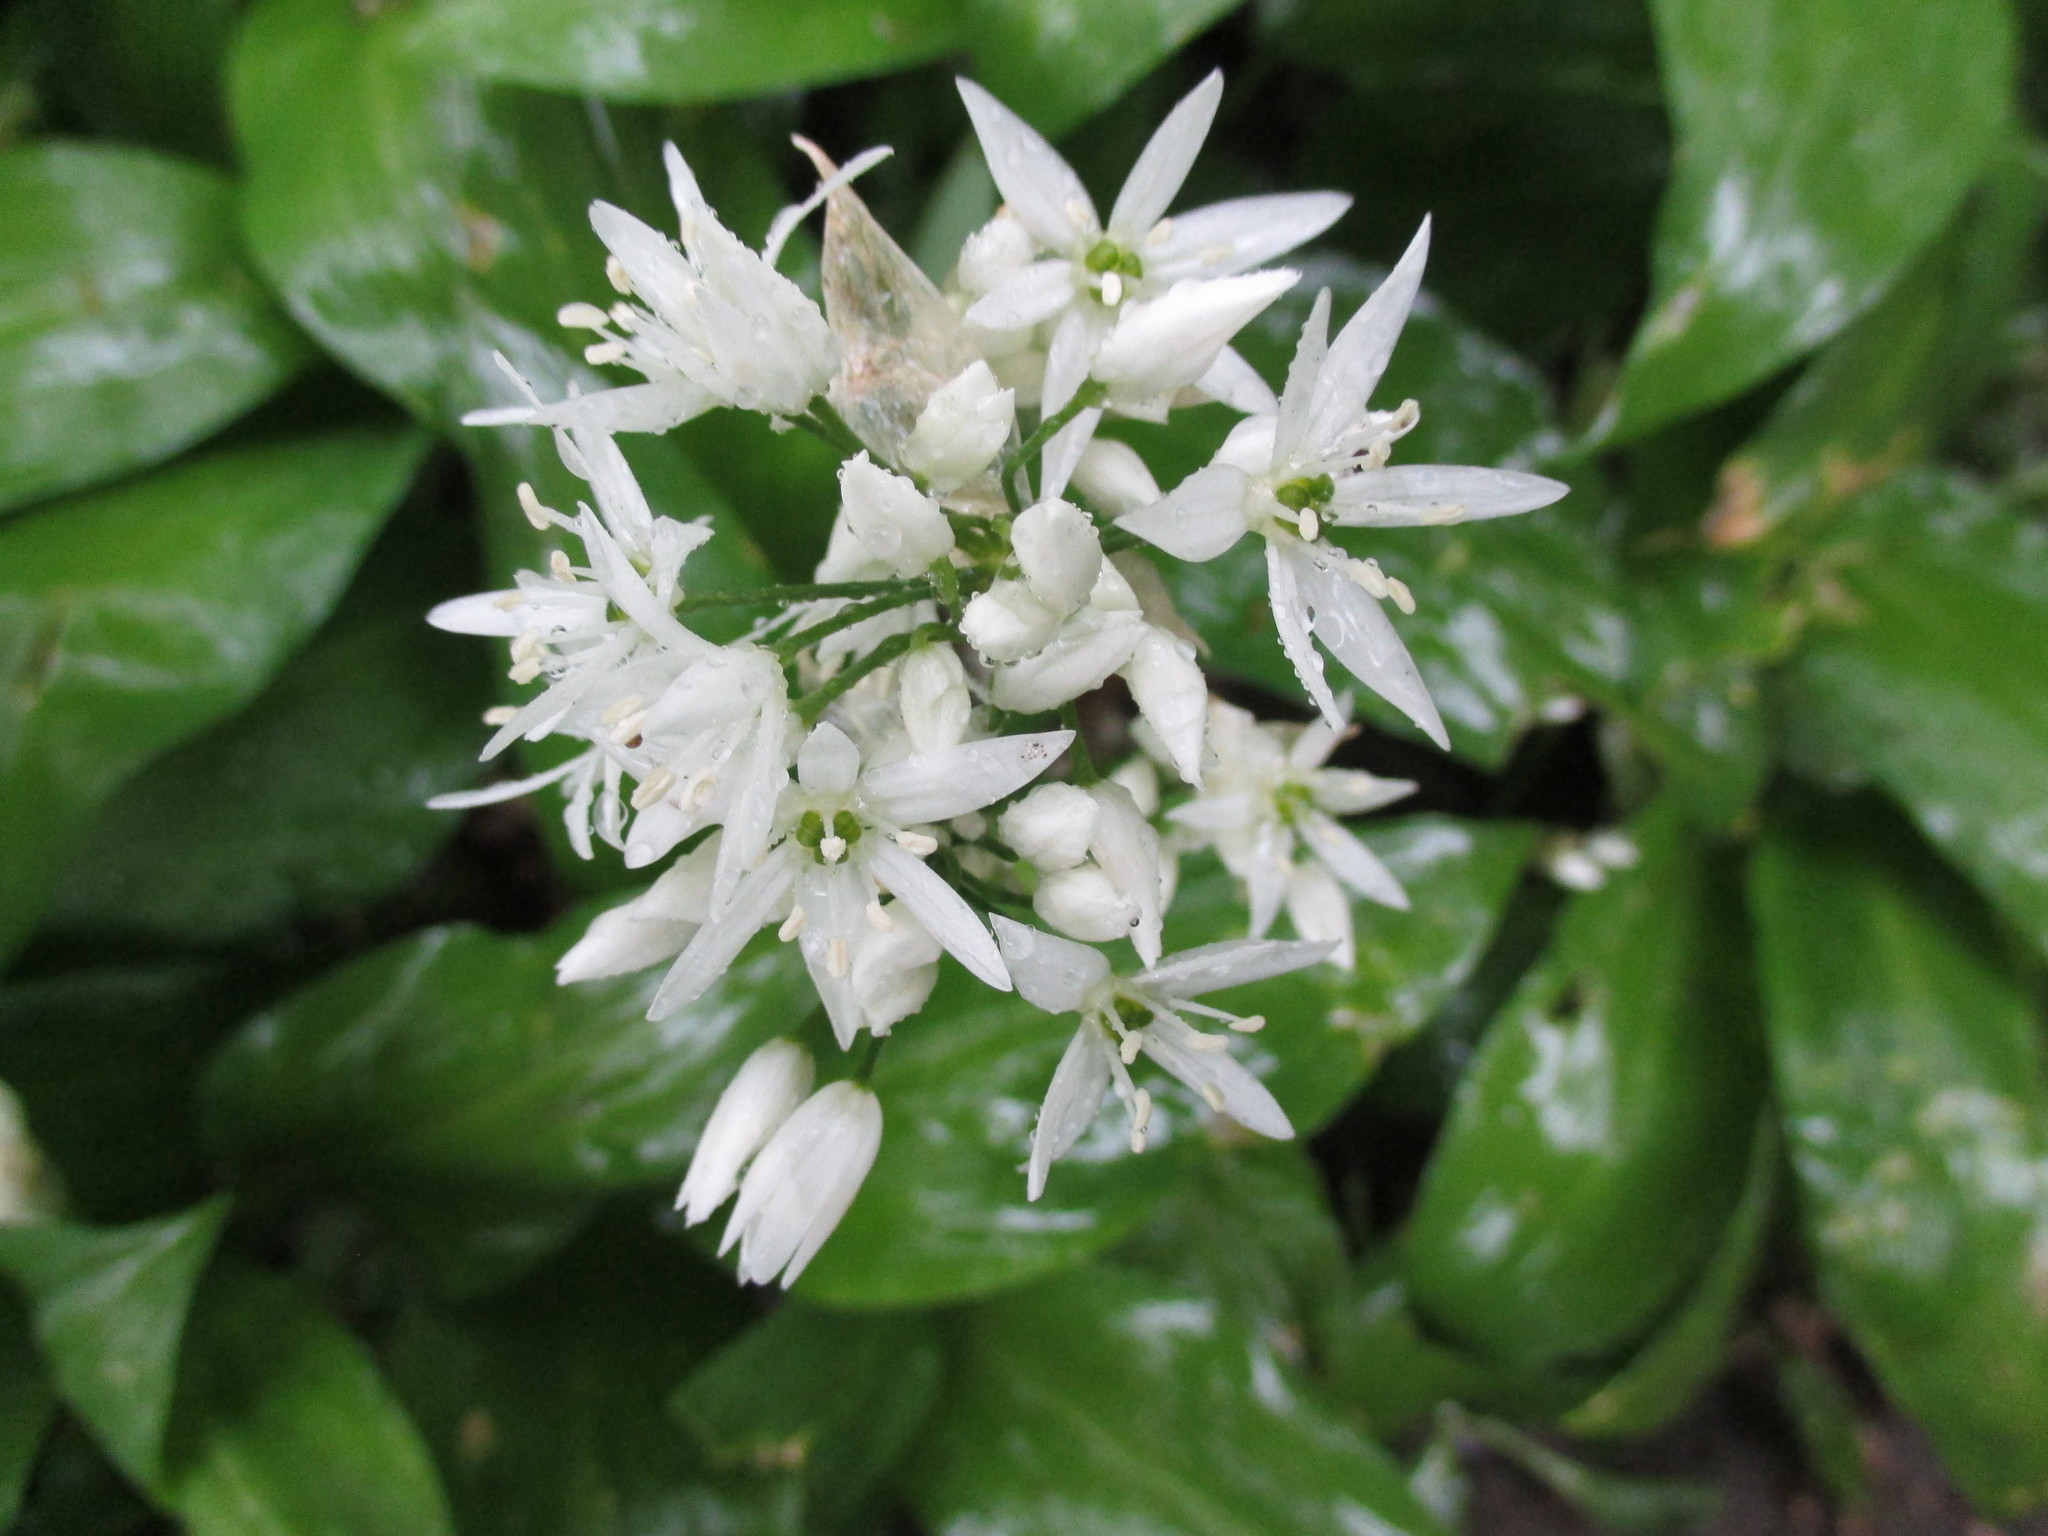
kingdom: Plantae
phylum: Tracheophyta
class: Liliopsida
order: Asparagales
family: Amaryllidaceae
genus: Allium
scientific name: Allium ursinum
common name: Ramsons
